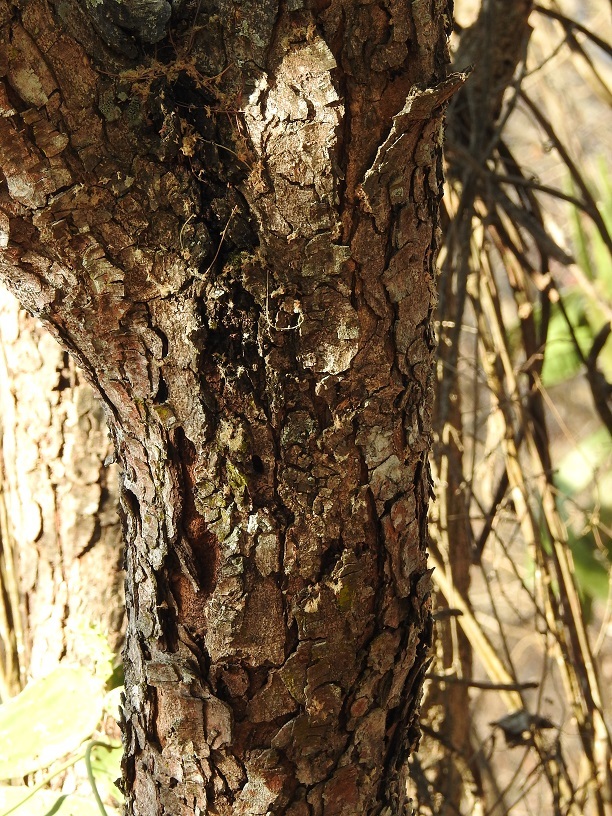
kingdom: Plantae
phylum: Tracheophyta
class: Magnoliopsida
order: Fabales
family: Fabaceae
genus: Lysiloma
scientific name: Lysiloma acapulcense
